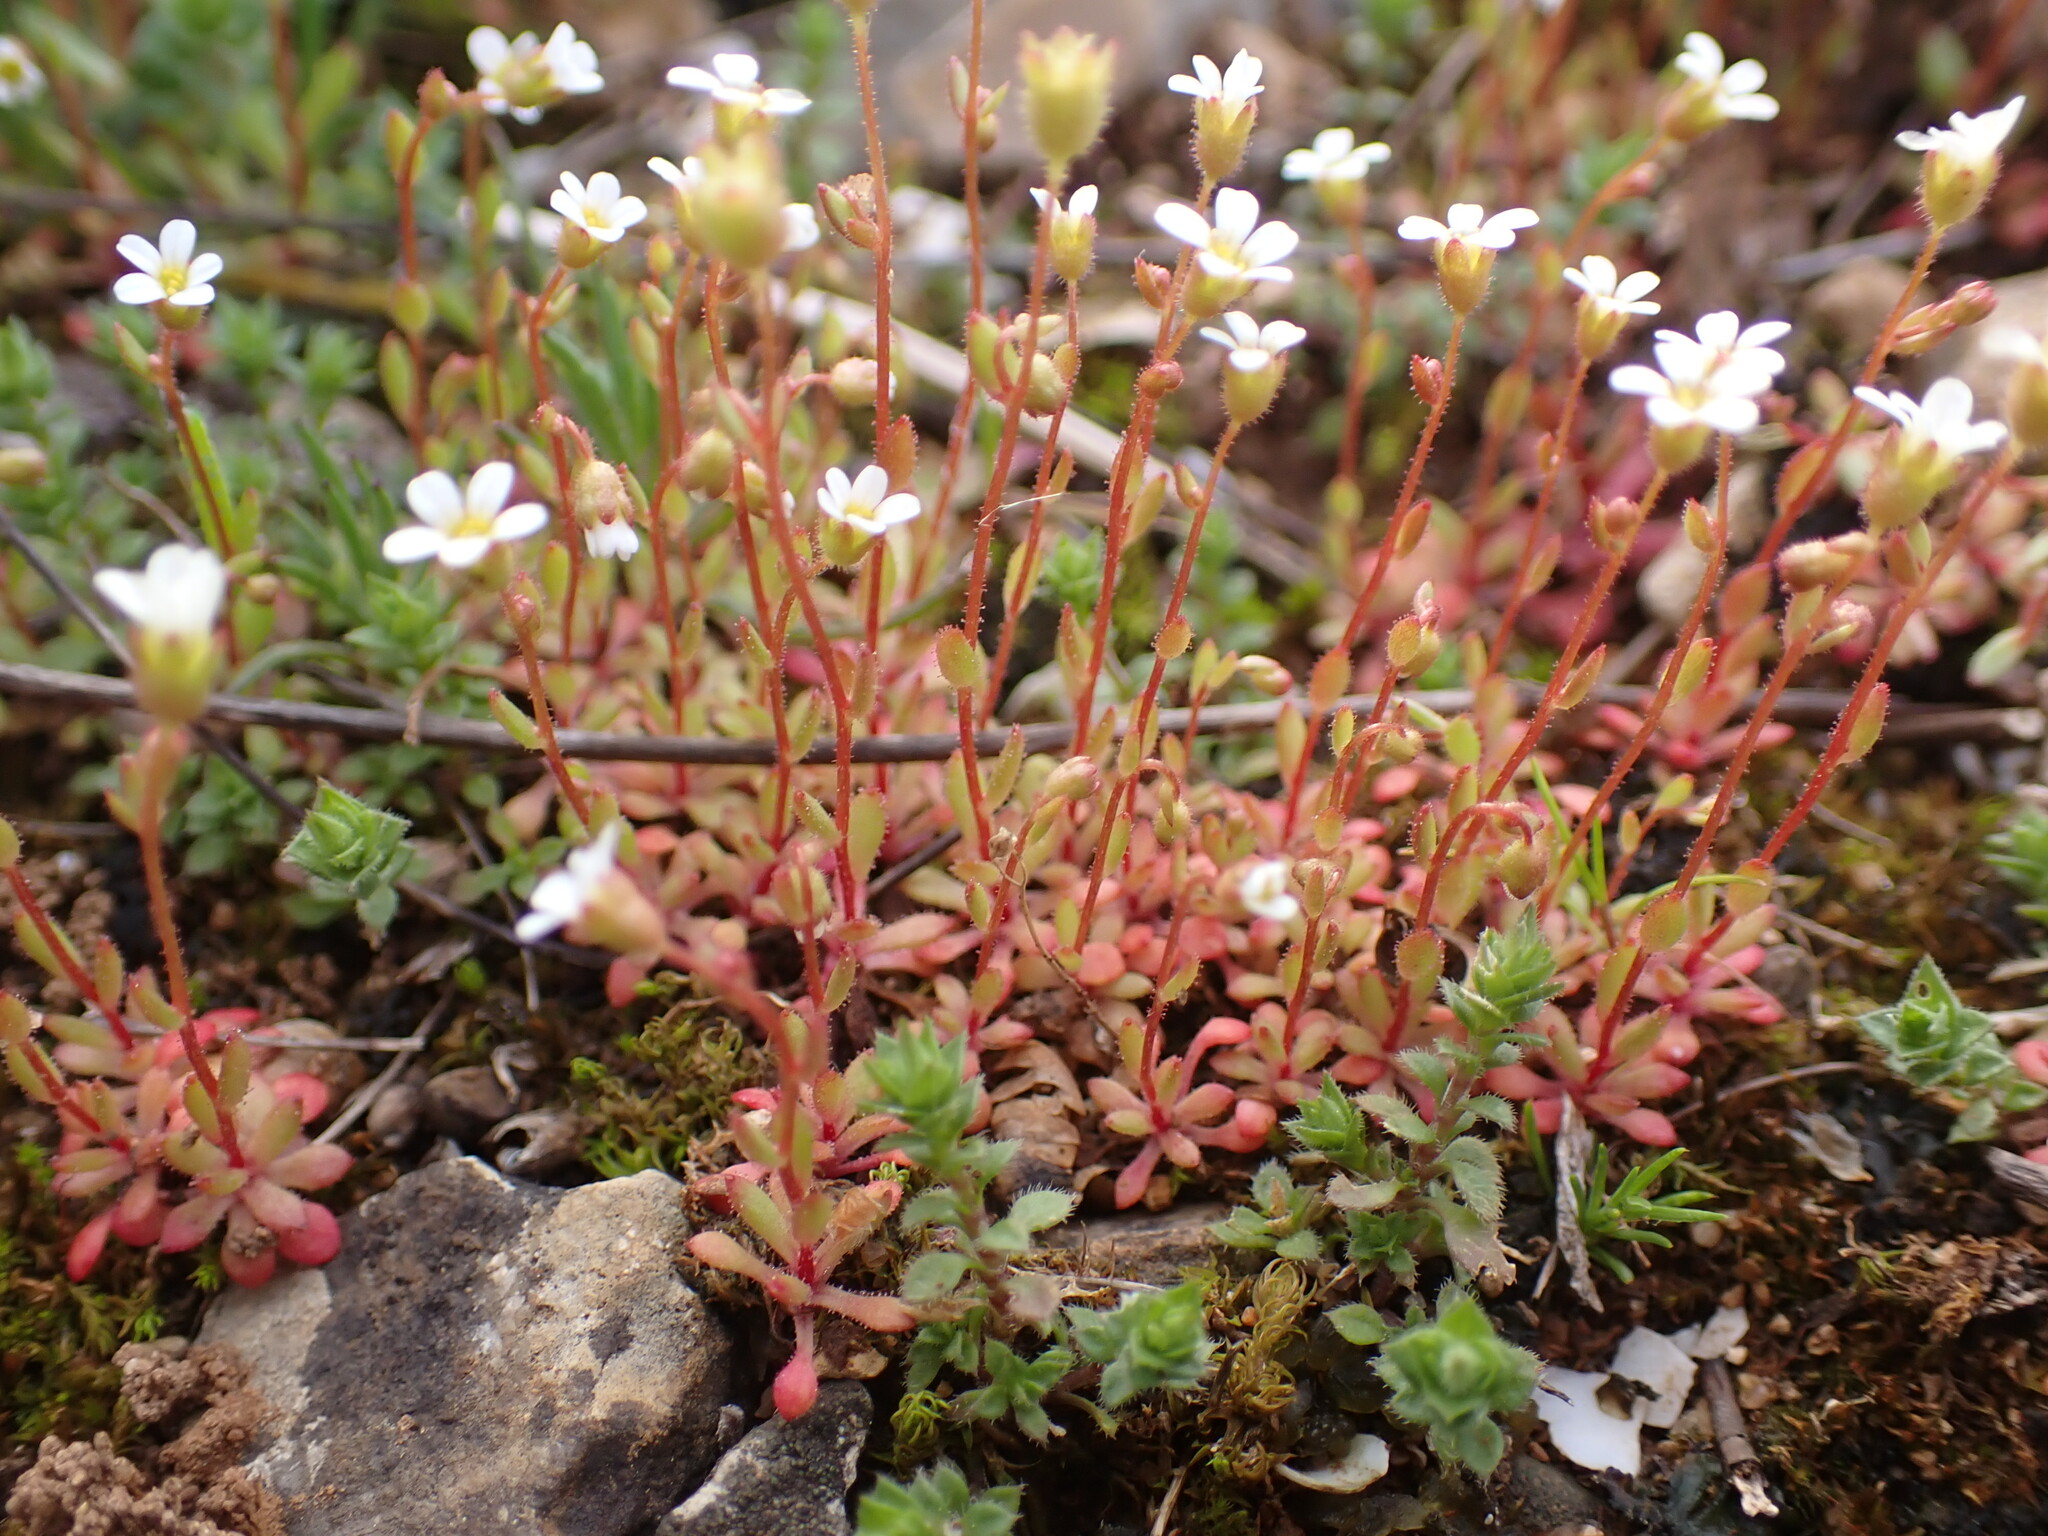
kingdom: Plantae
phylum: Tracheophyta
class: Magnoliopsida
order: Saxifragales
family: Saxifragaceae
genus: Saxifraga
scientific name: Saxifraga tridactylites
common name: Rue-leaved saxifrage
